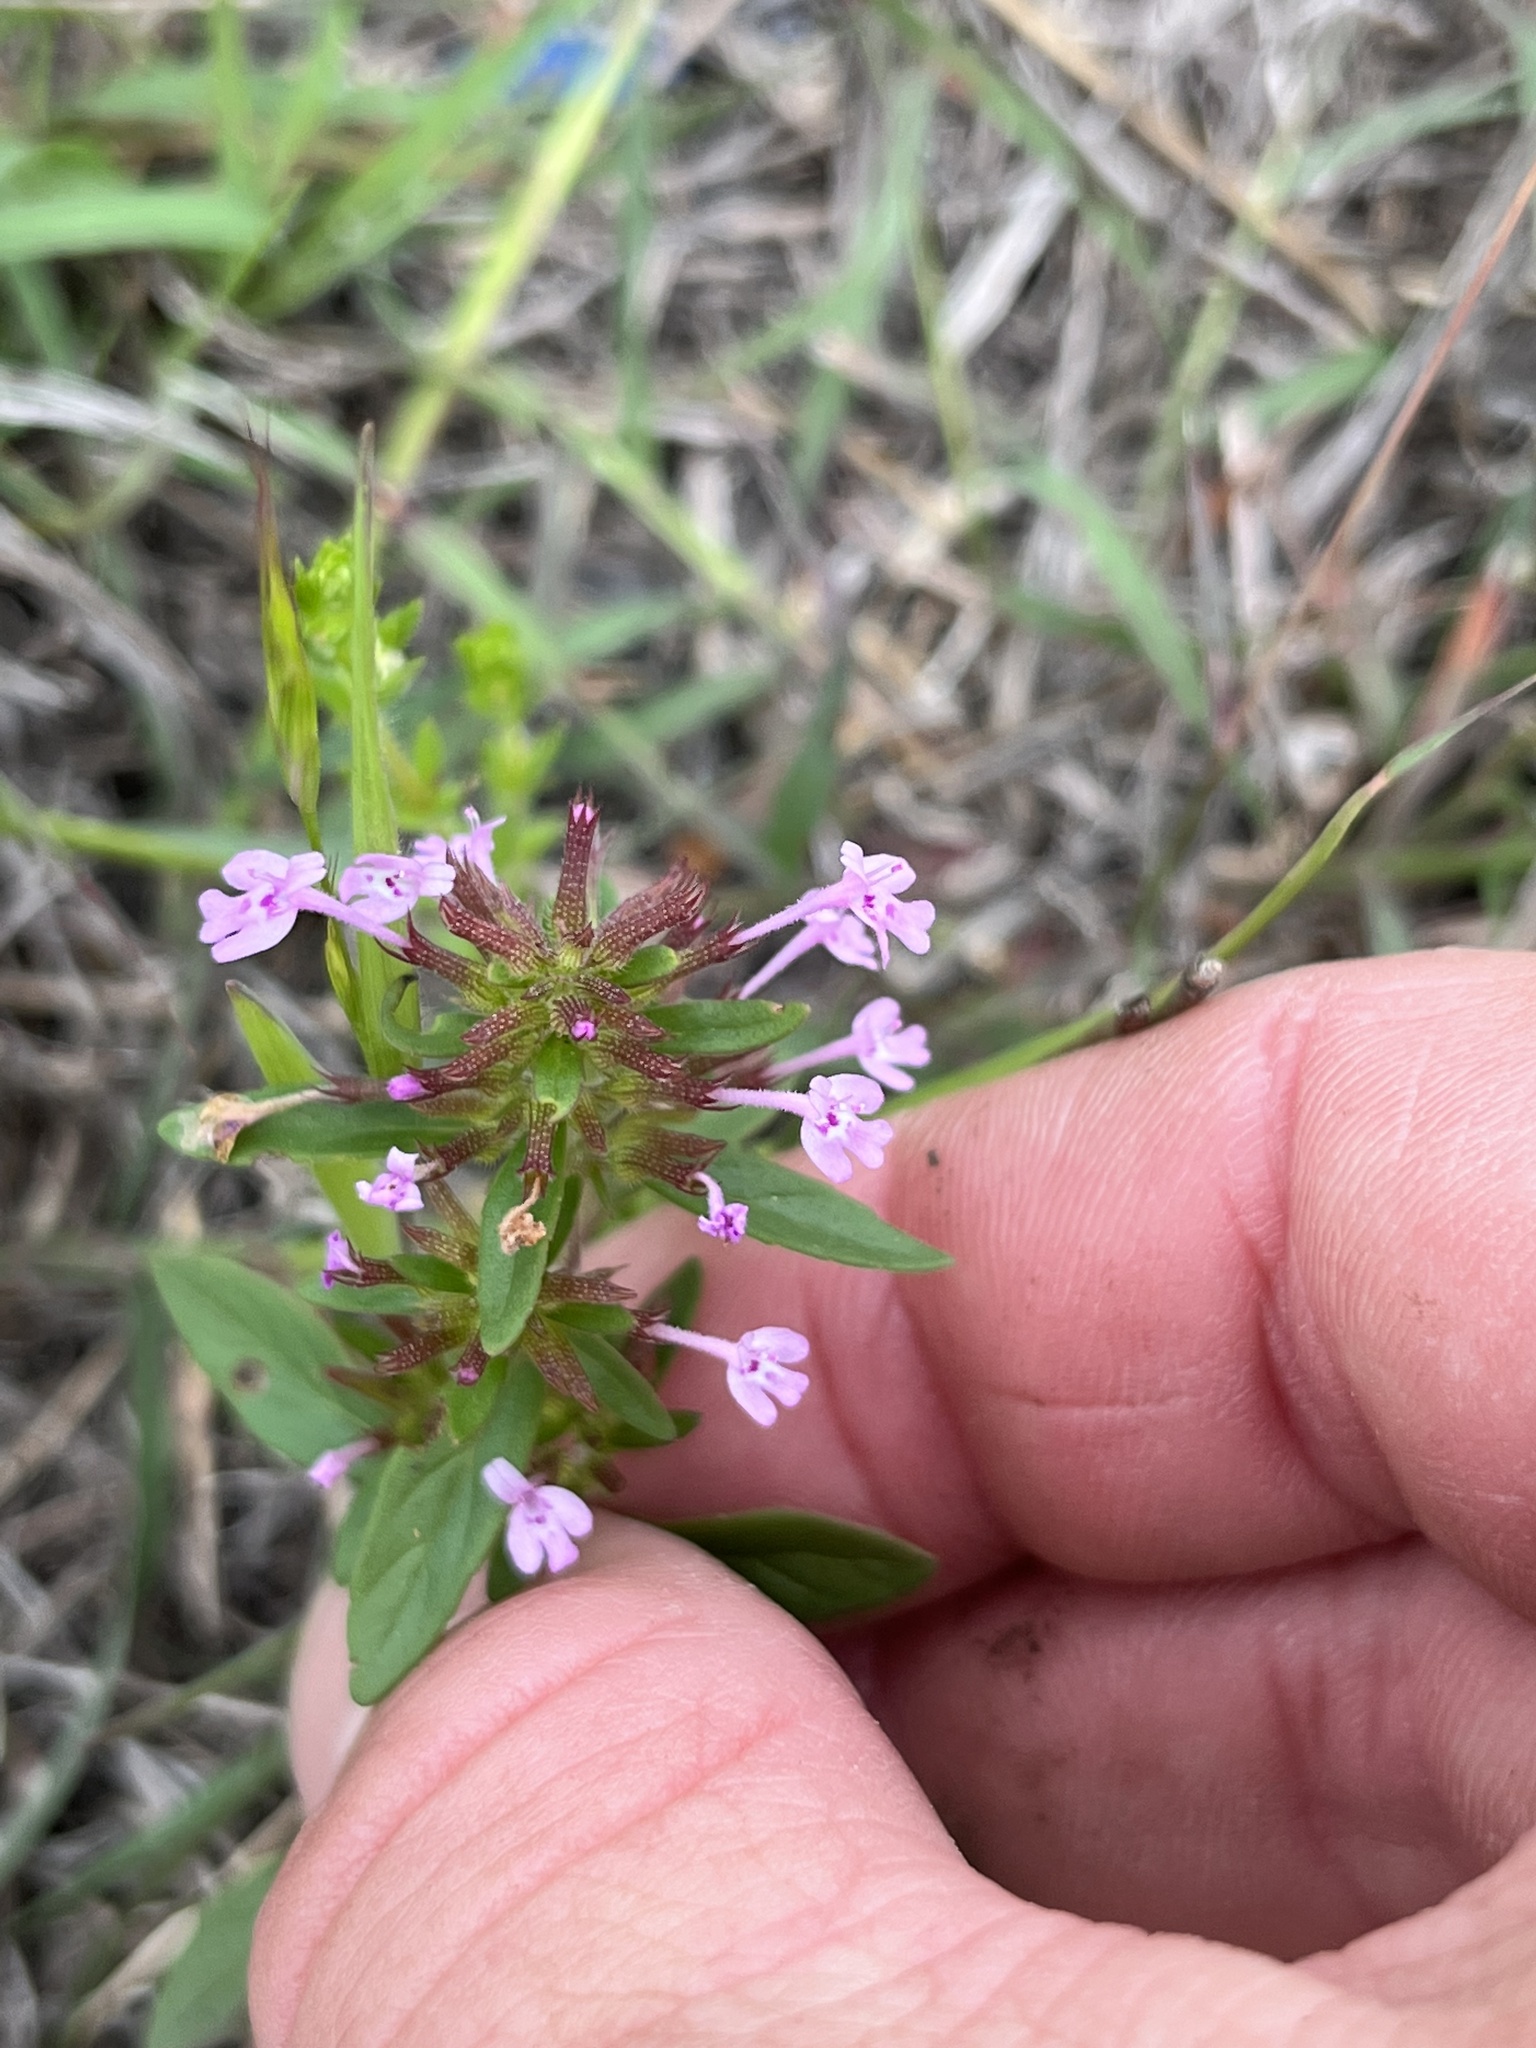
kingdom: Plantae
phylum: Tracheophyta
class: Magnoliopsida
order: Lamiales
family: Lamiaceae
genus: Hedeoma
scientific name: Hedeoma acinoides
